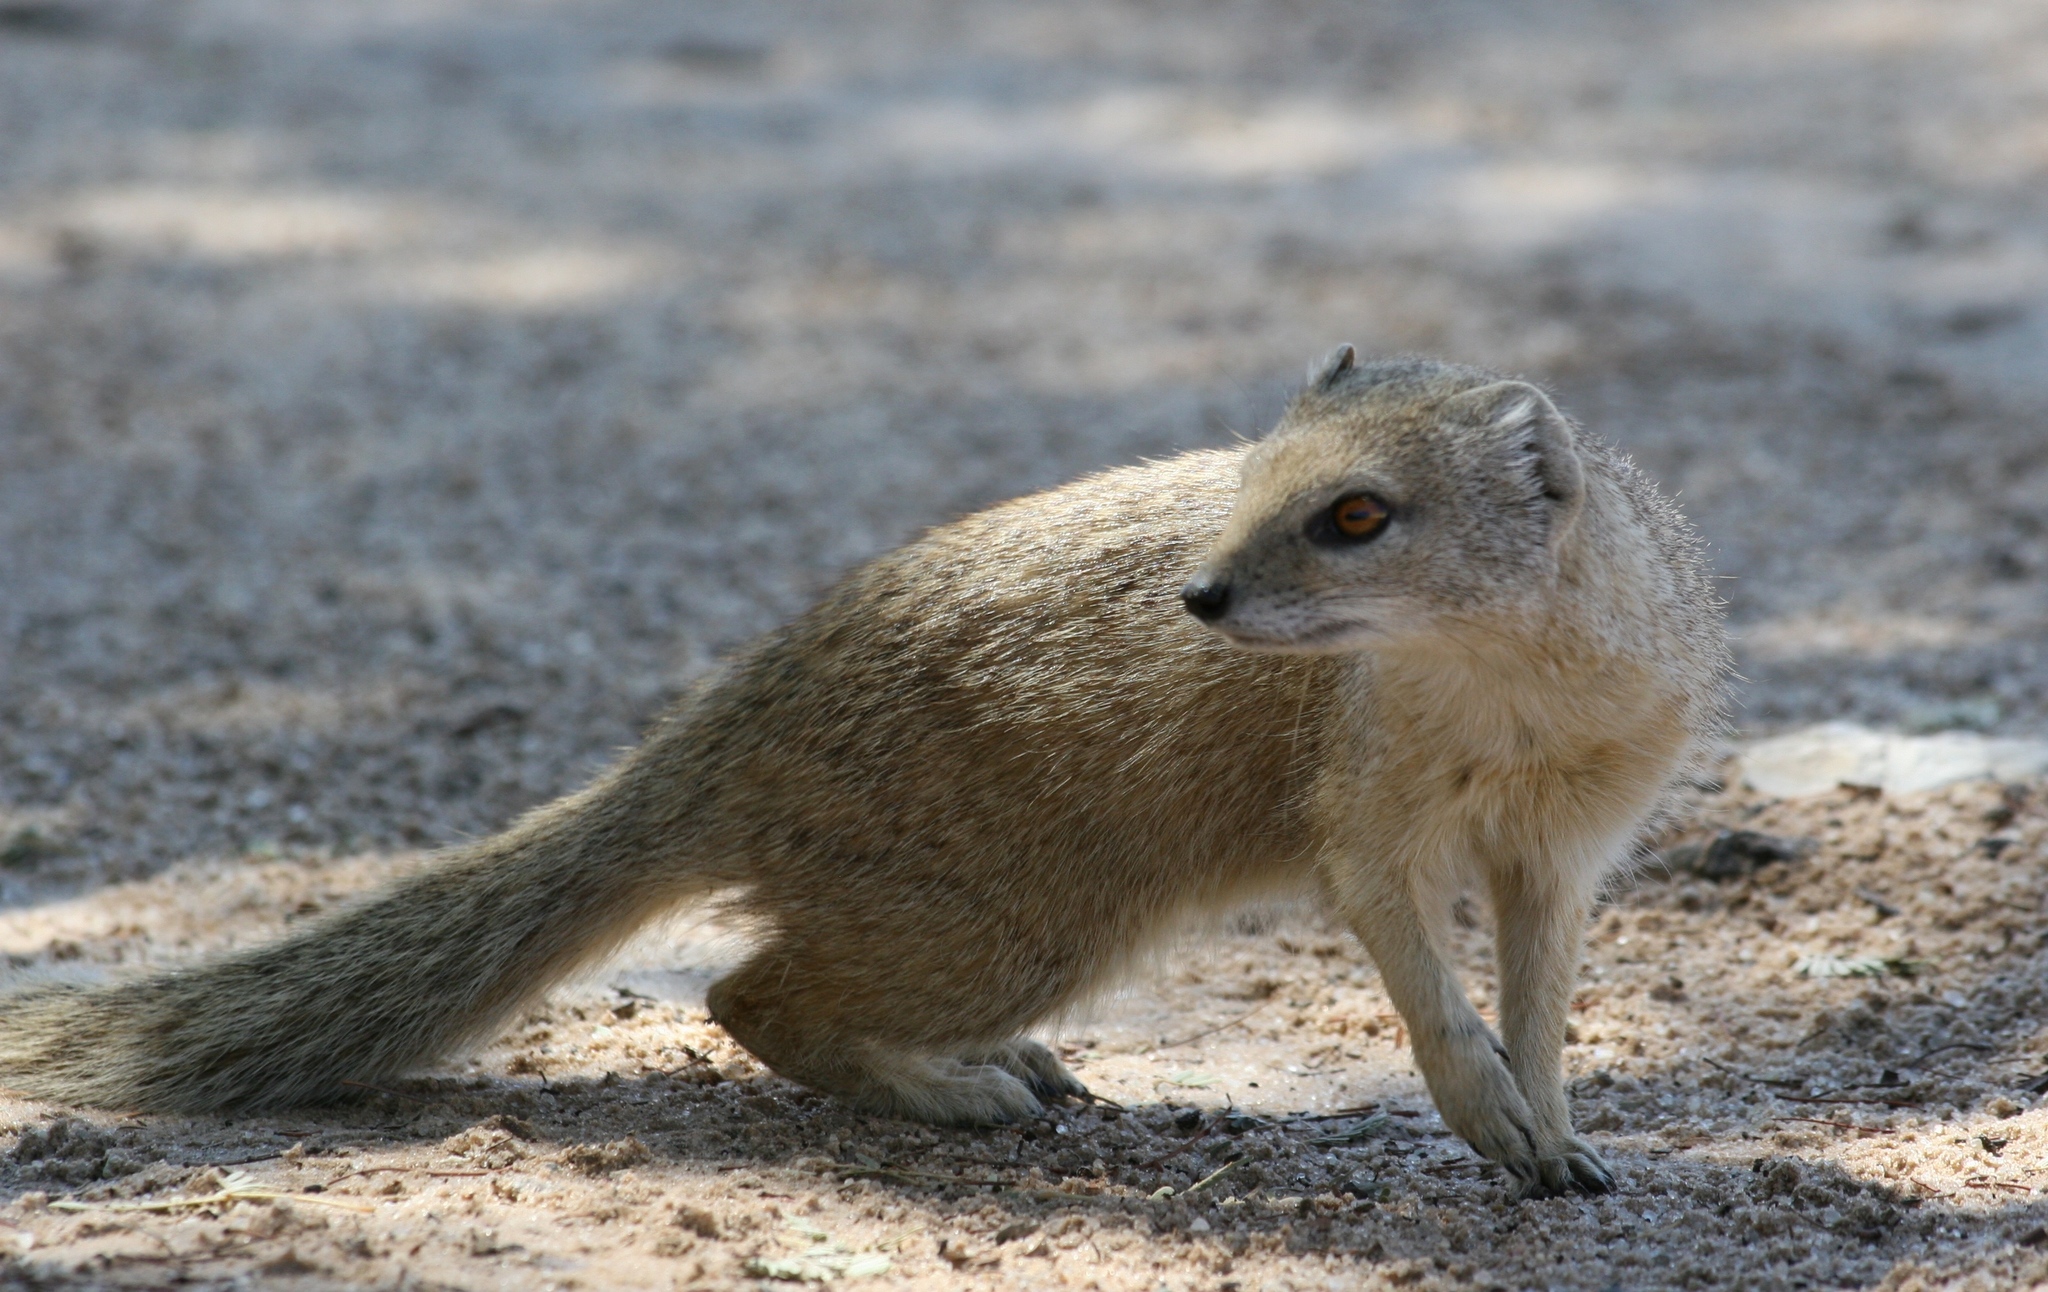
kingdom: Animalia
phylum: Chordata
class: Mammalia
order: Carnivora
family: Herpestidae
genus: Cynictis
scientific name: Cynictis penicillata
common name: Yellow mongoose
